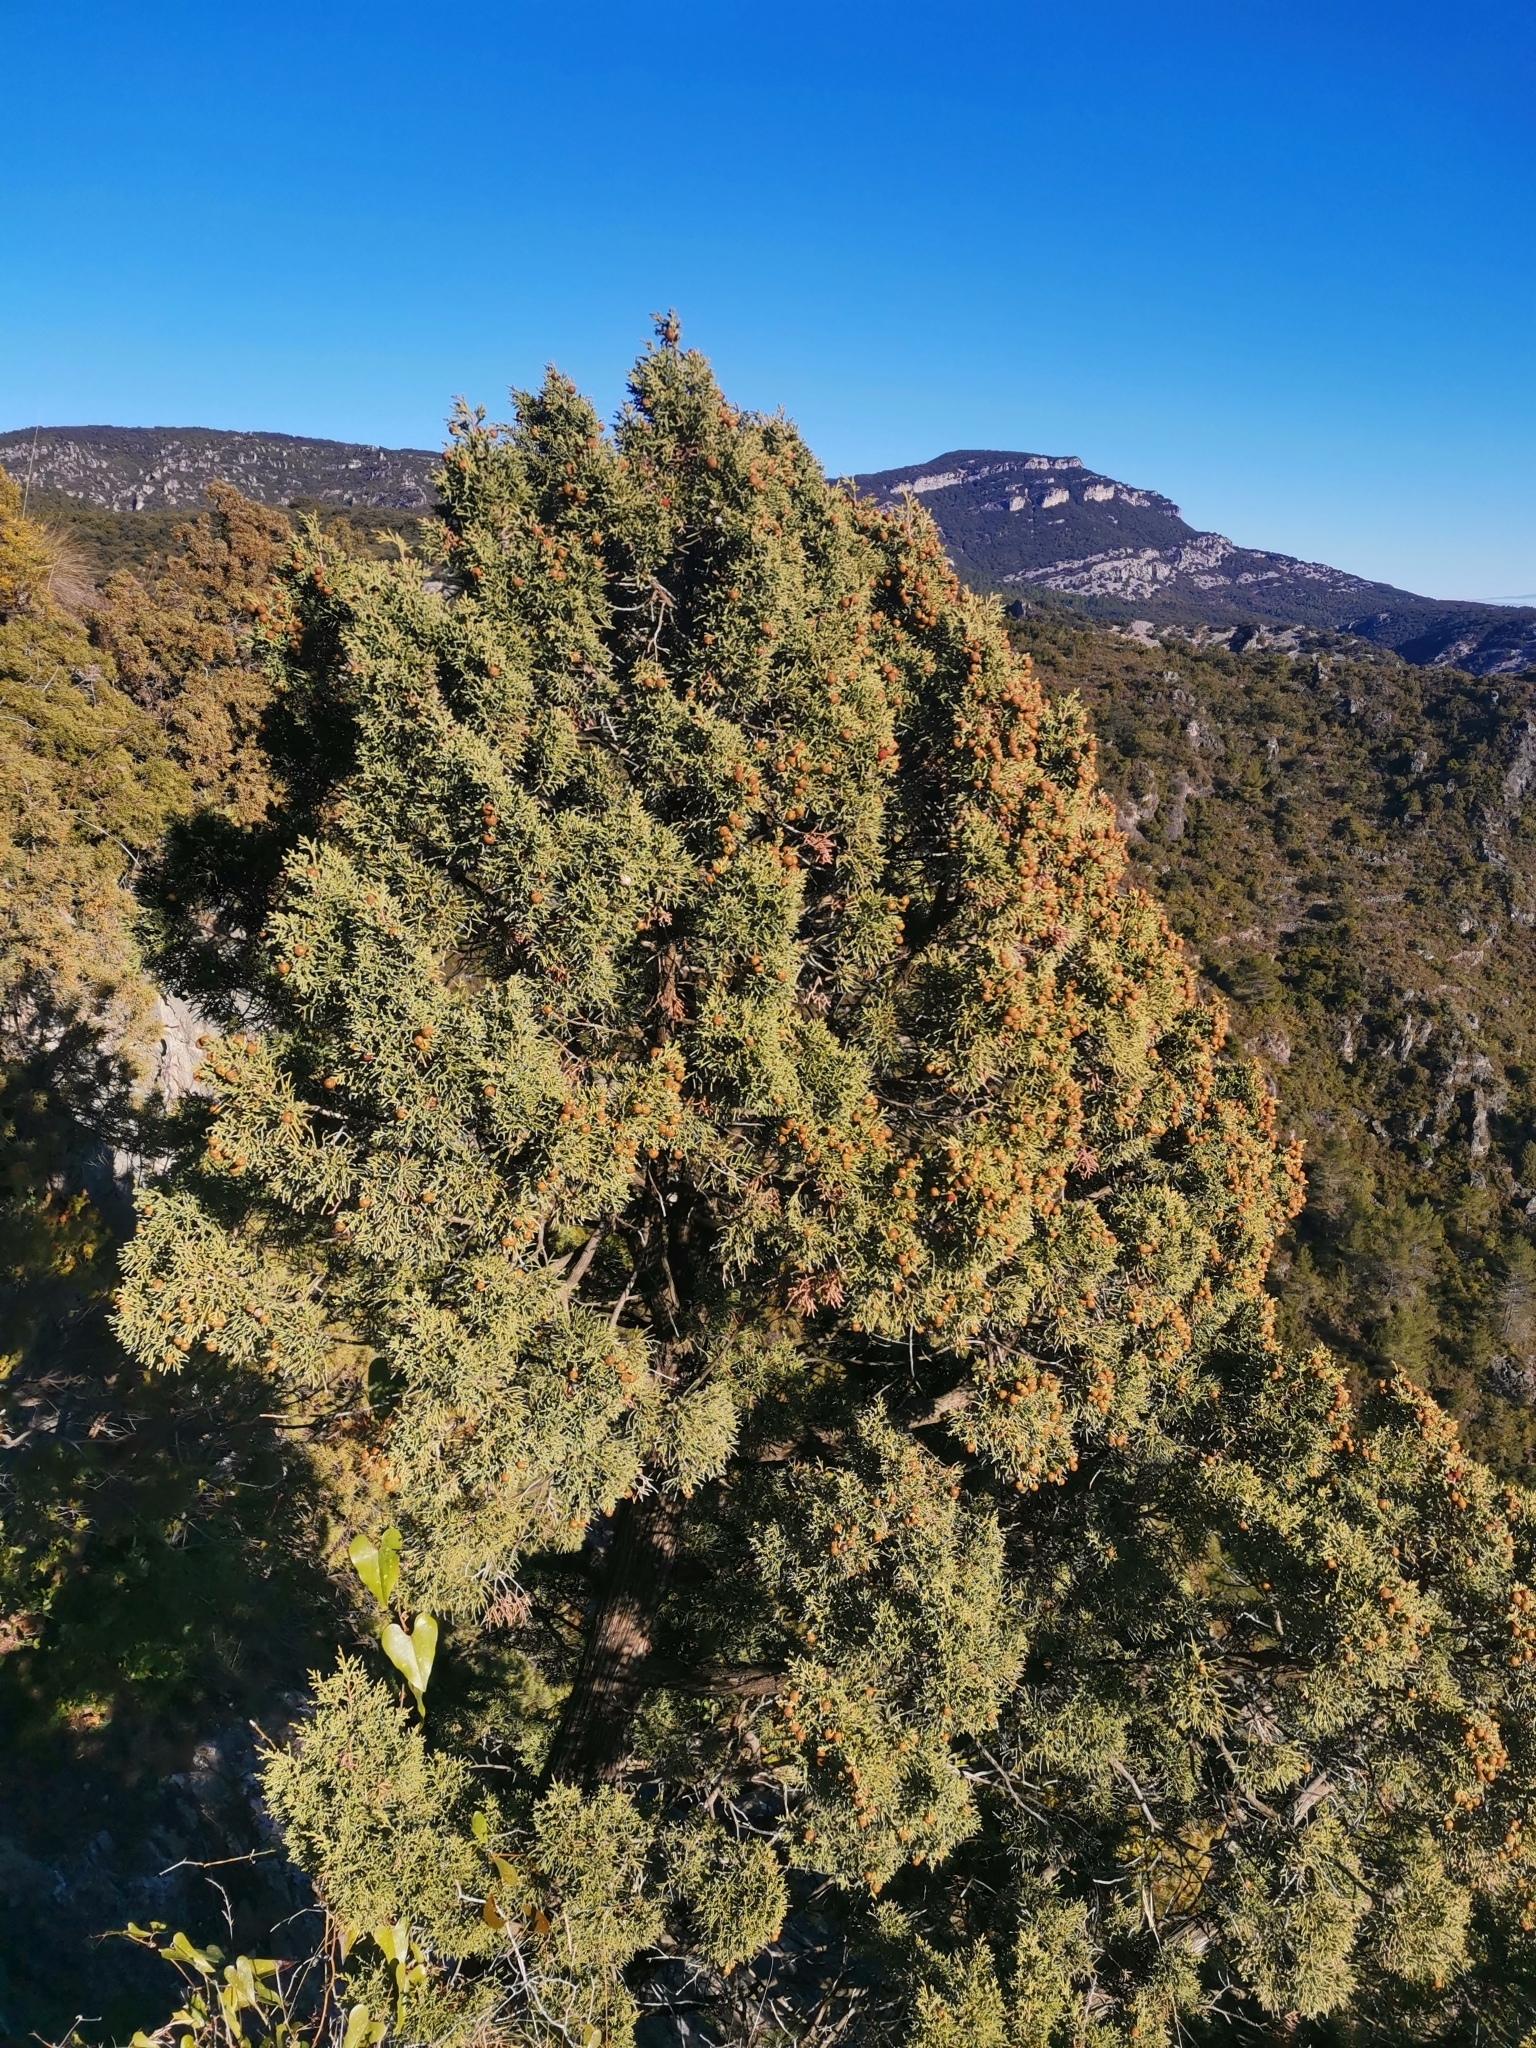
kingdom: Plantae
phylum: Tracheophyta
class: Pinopsida
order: Pinales
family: Cupressaceae
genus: Juniperus
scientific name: Juniperus phoenicea
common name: Phoenician juniper
